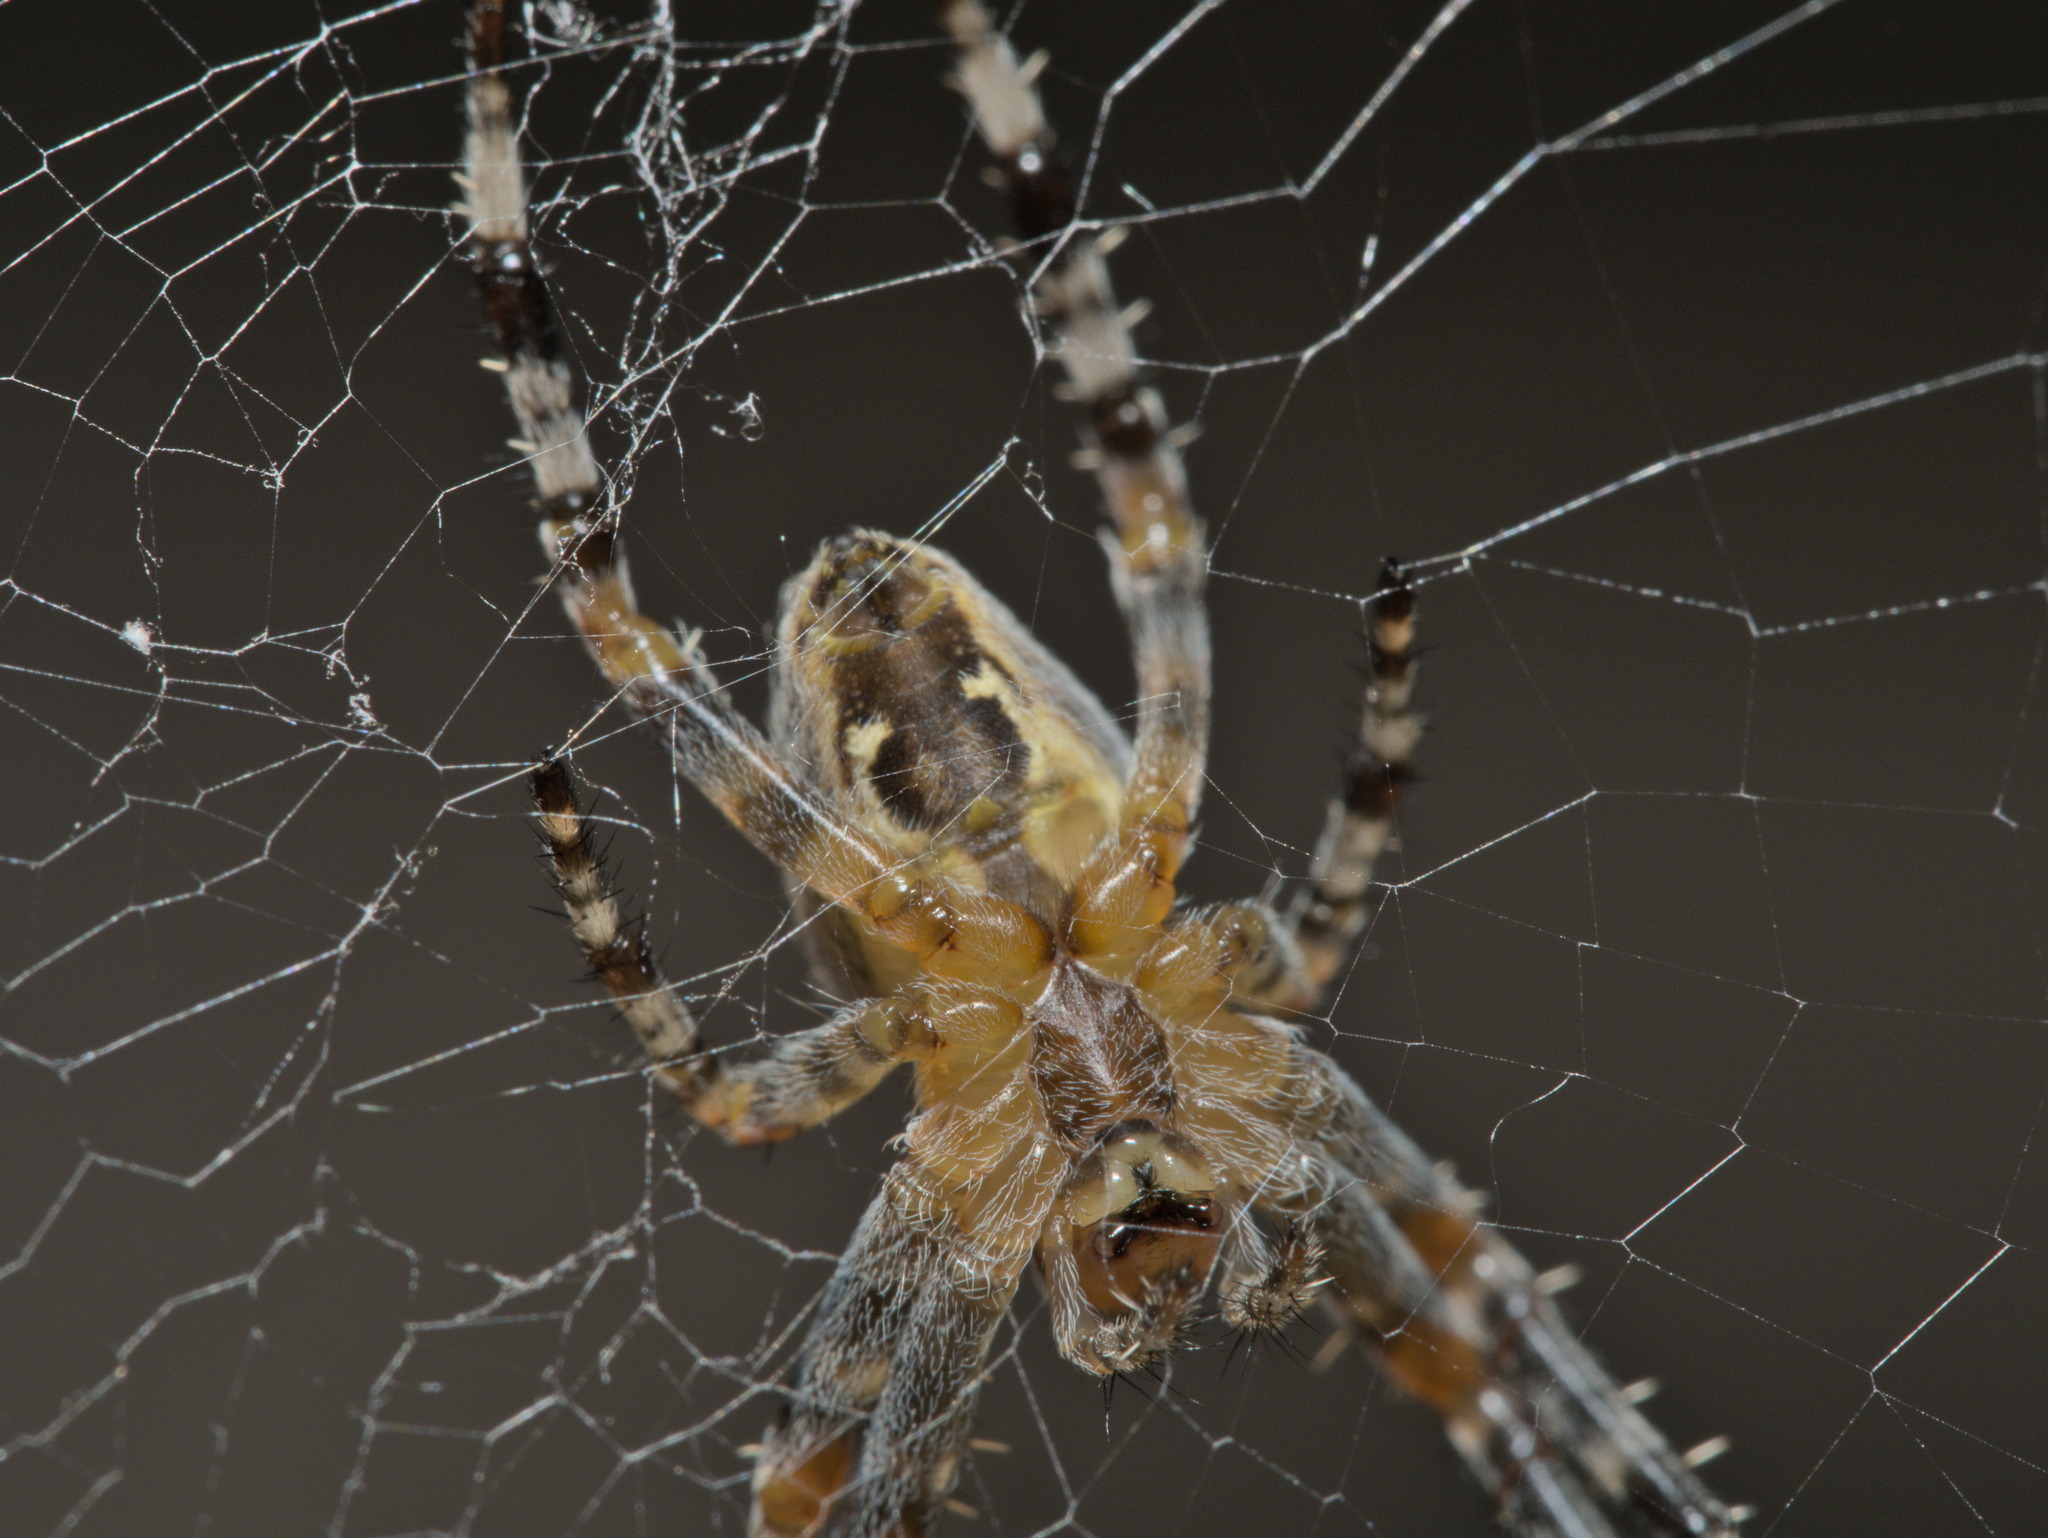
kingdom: Animalia
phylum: Arthropoda
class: Arachnida
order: Araneae
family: Araneidae
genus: Araneus
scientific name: Araneus diadematus
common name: Cross orbweaver
